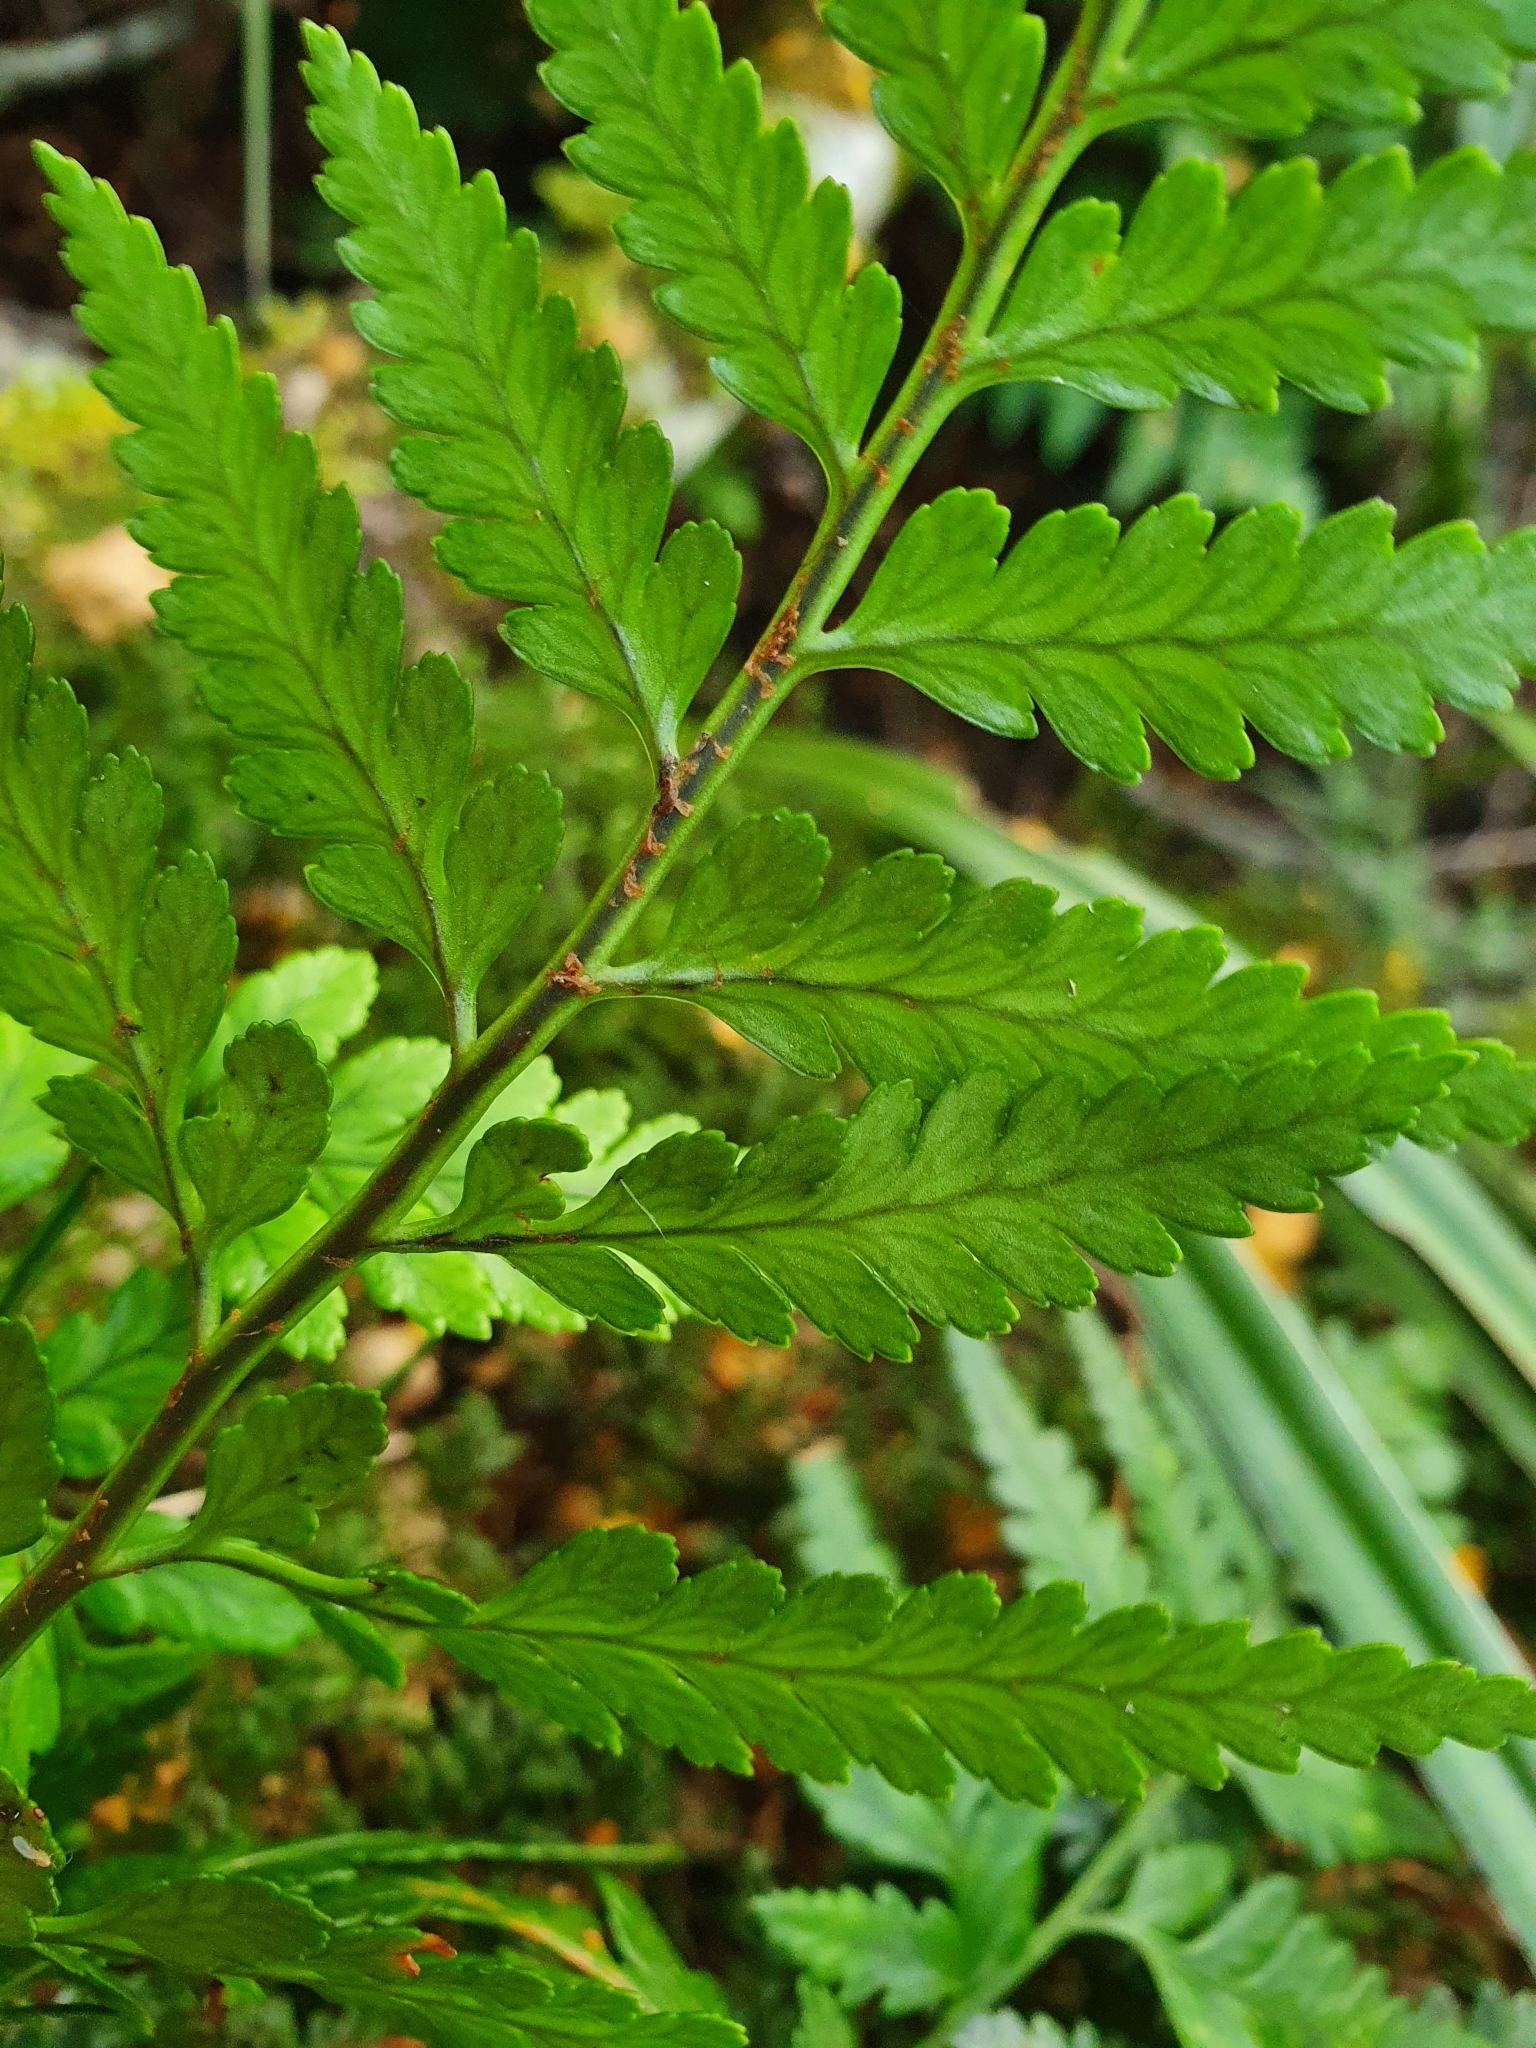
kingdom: Plantae
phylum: Tracheophyta
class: Polypodiopsida
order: Polypodiales
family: Dryopteridaceae
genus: Rumohra
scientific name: Rumohra adiantiformis
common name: Leather fern
